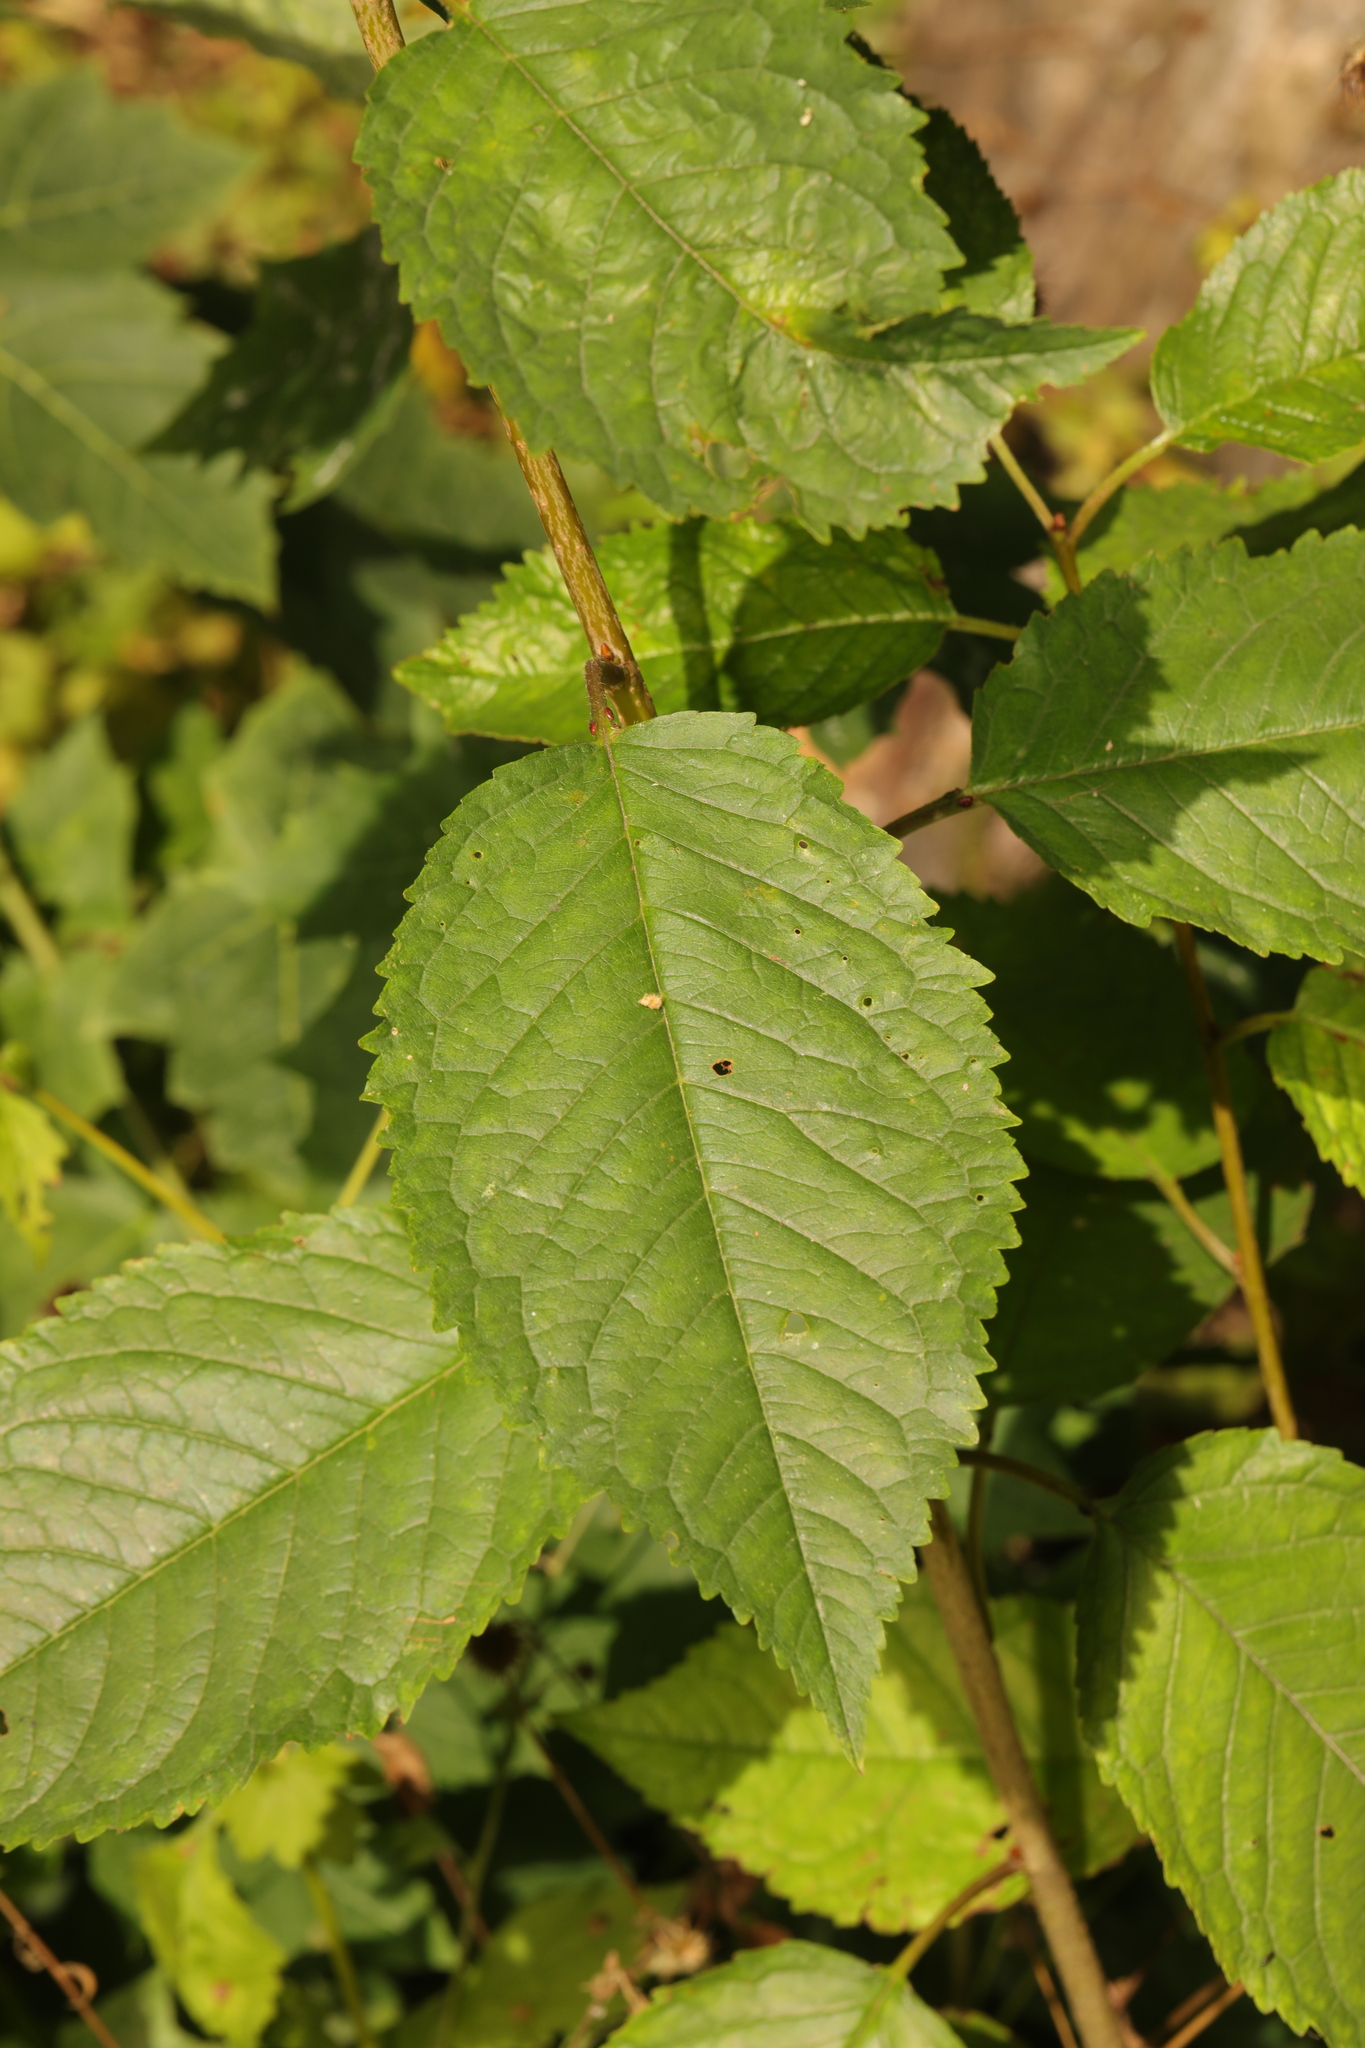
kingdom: Plantae
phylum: Tracheophyta
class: Magnoliopsida
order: Rosales
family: Rosaceae
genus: Prunus
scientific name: Prunus avium
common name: Sweet cherry
